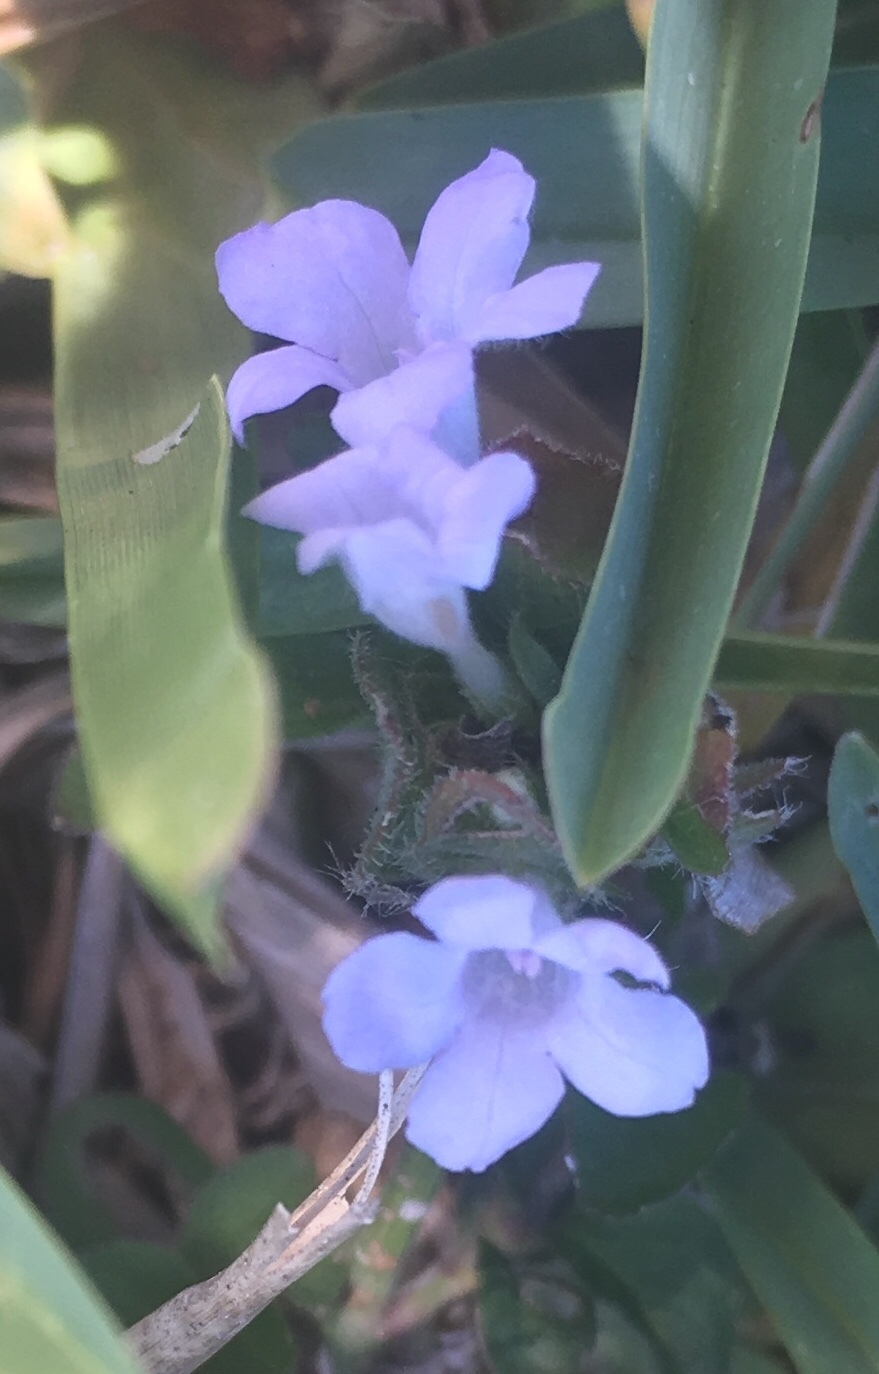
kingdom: Plantae
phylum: Tracheophyta
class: Magnoliopsida
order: Lamiales
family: Acanthaceae
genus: Ruellia
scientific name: Ruellia blechum
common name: Browne's blechum
